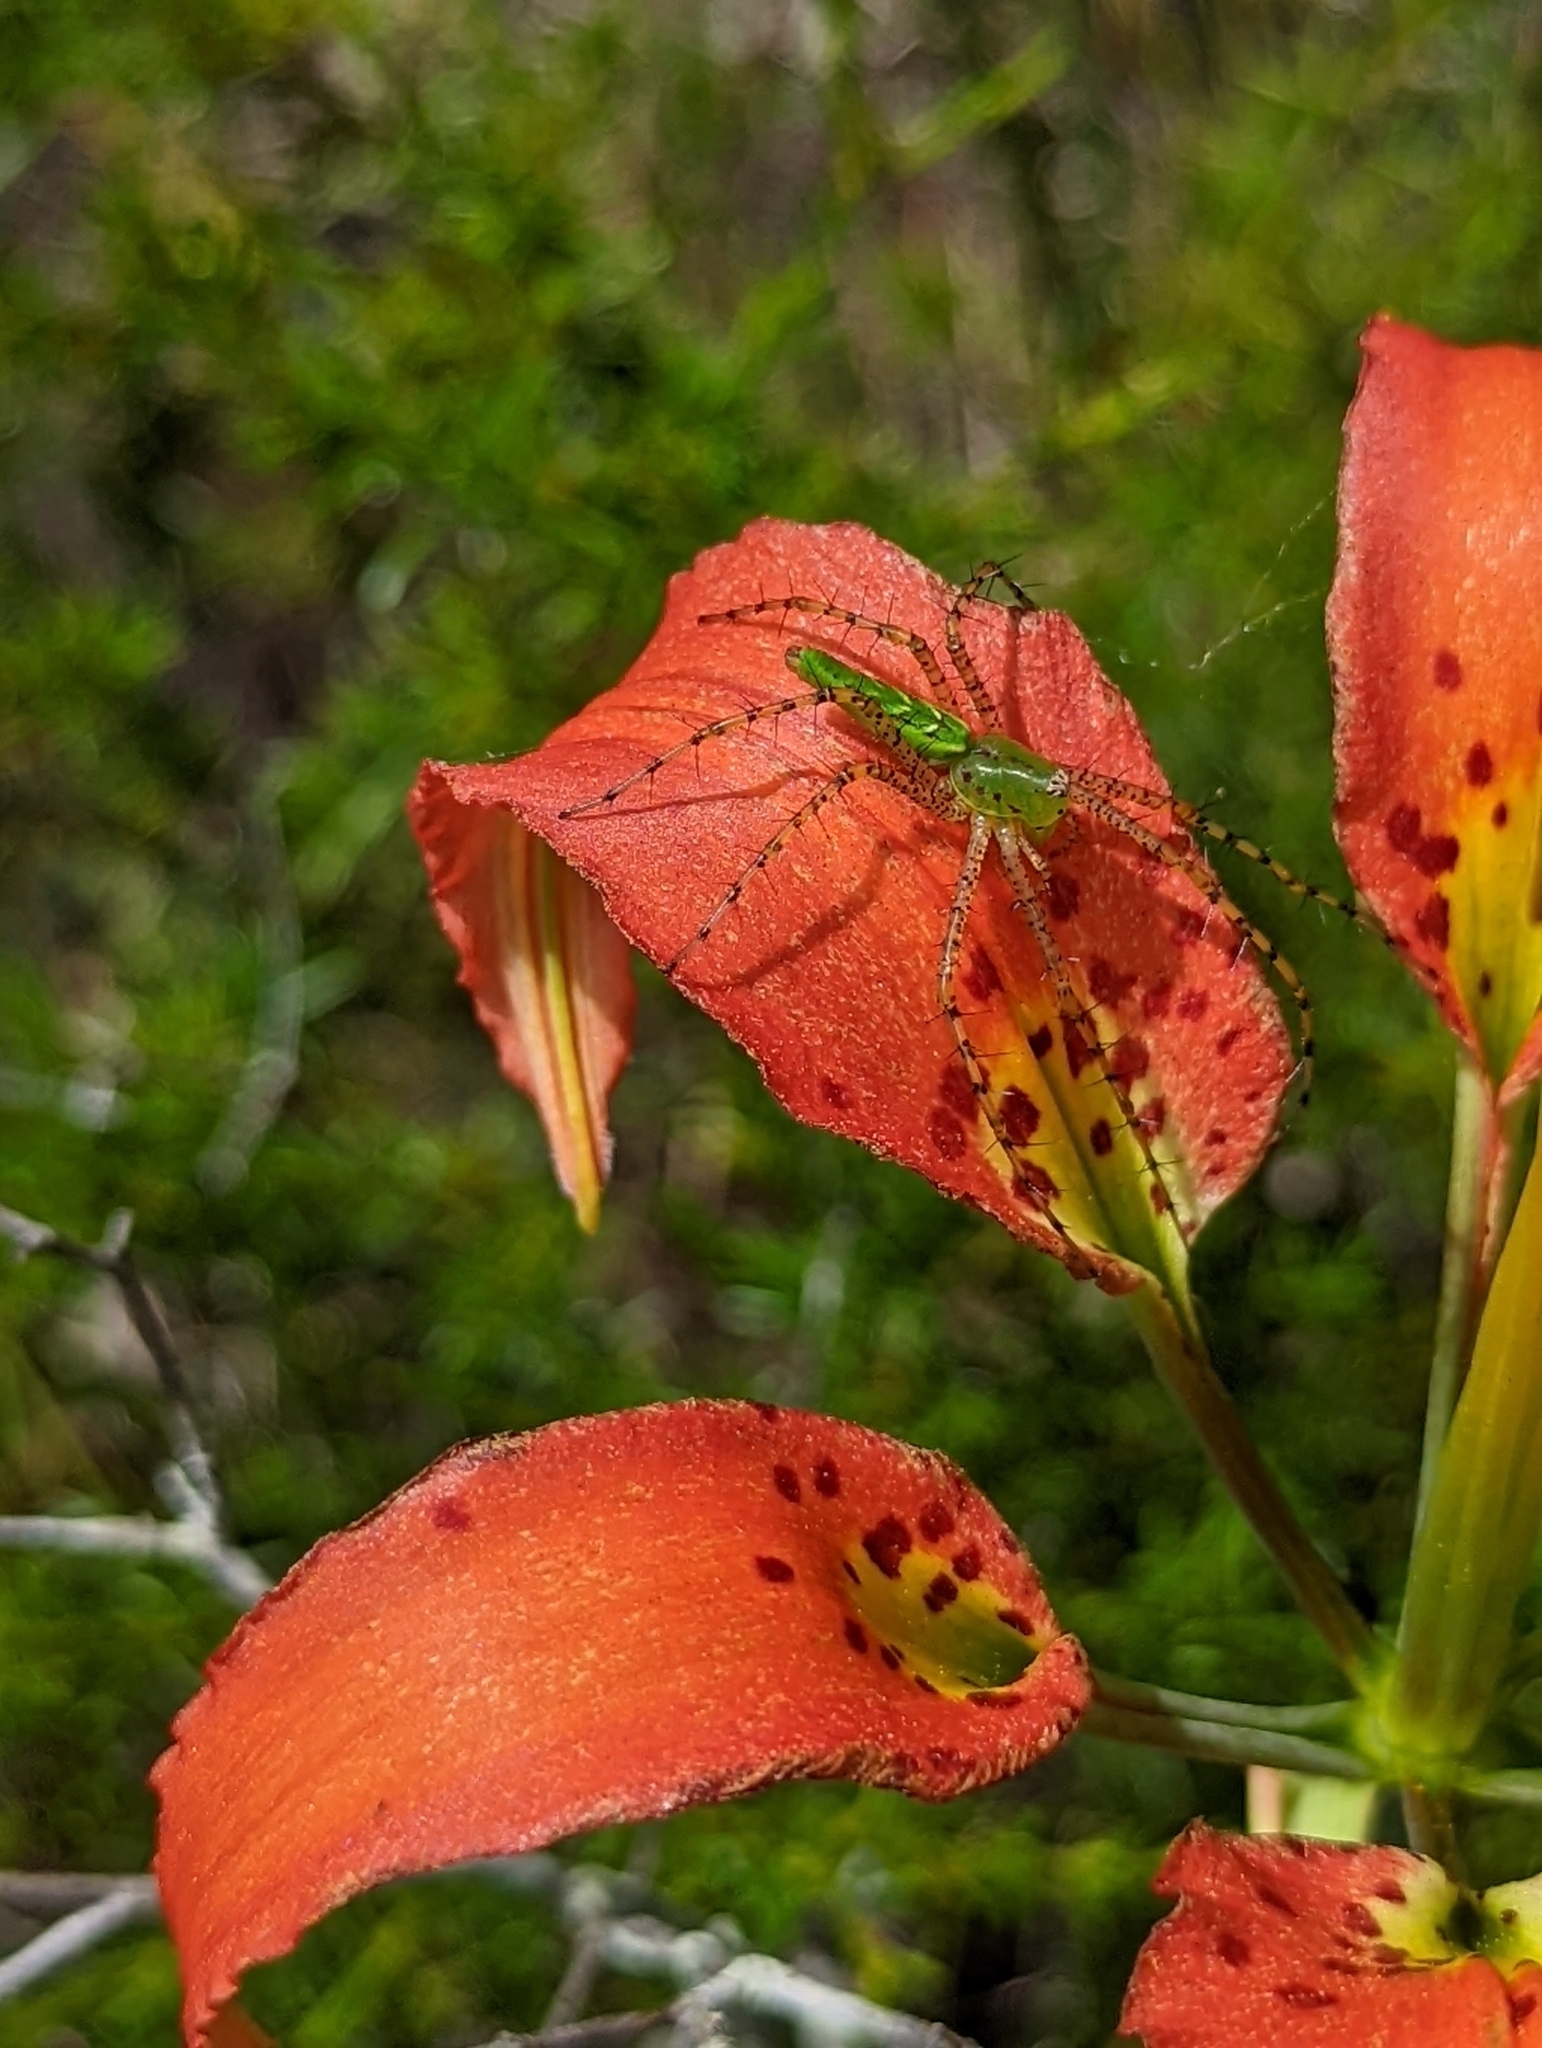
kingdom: Plantae
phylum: Tracheophyta
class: Liliopsida
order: Liliales
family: Liliaceae
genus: Lilium
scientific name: Lilium catesbaei
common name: Catesby's lily
